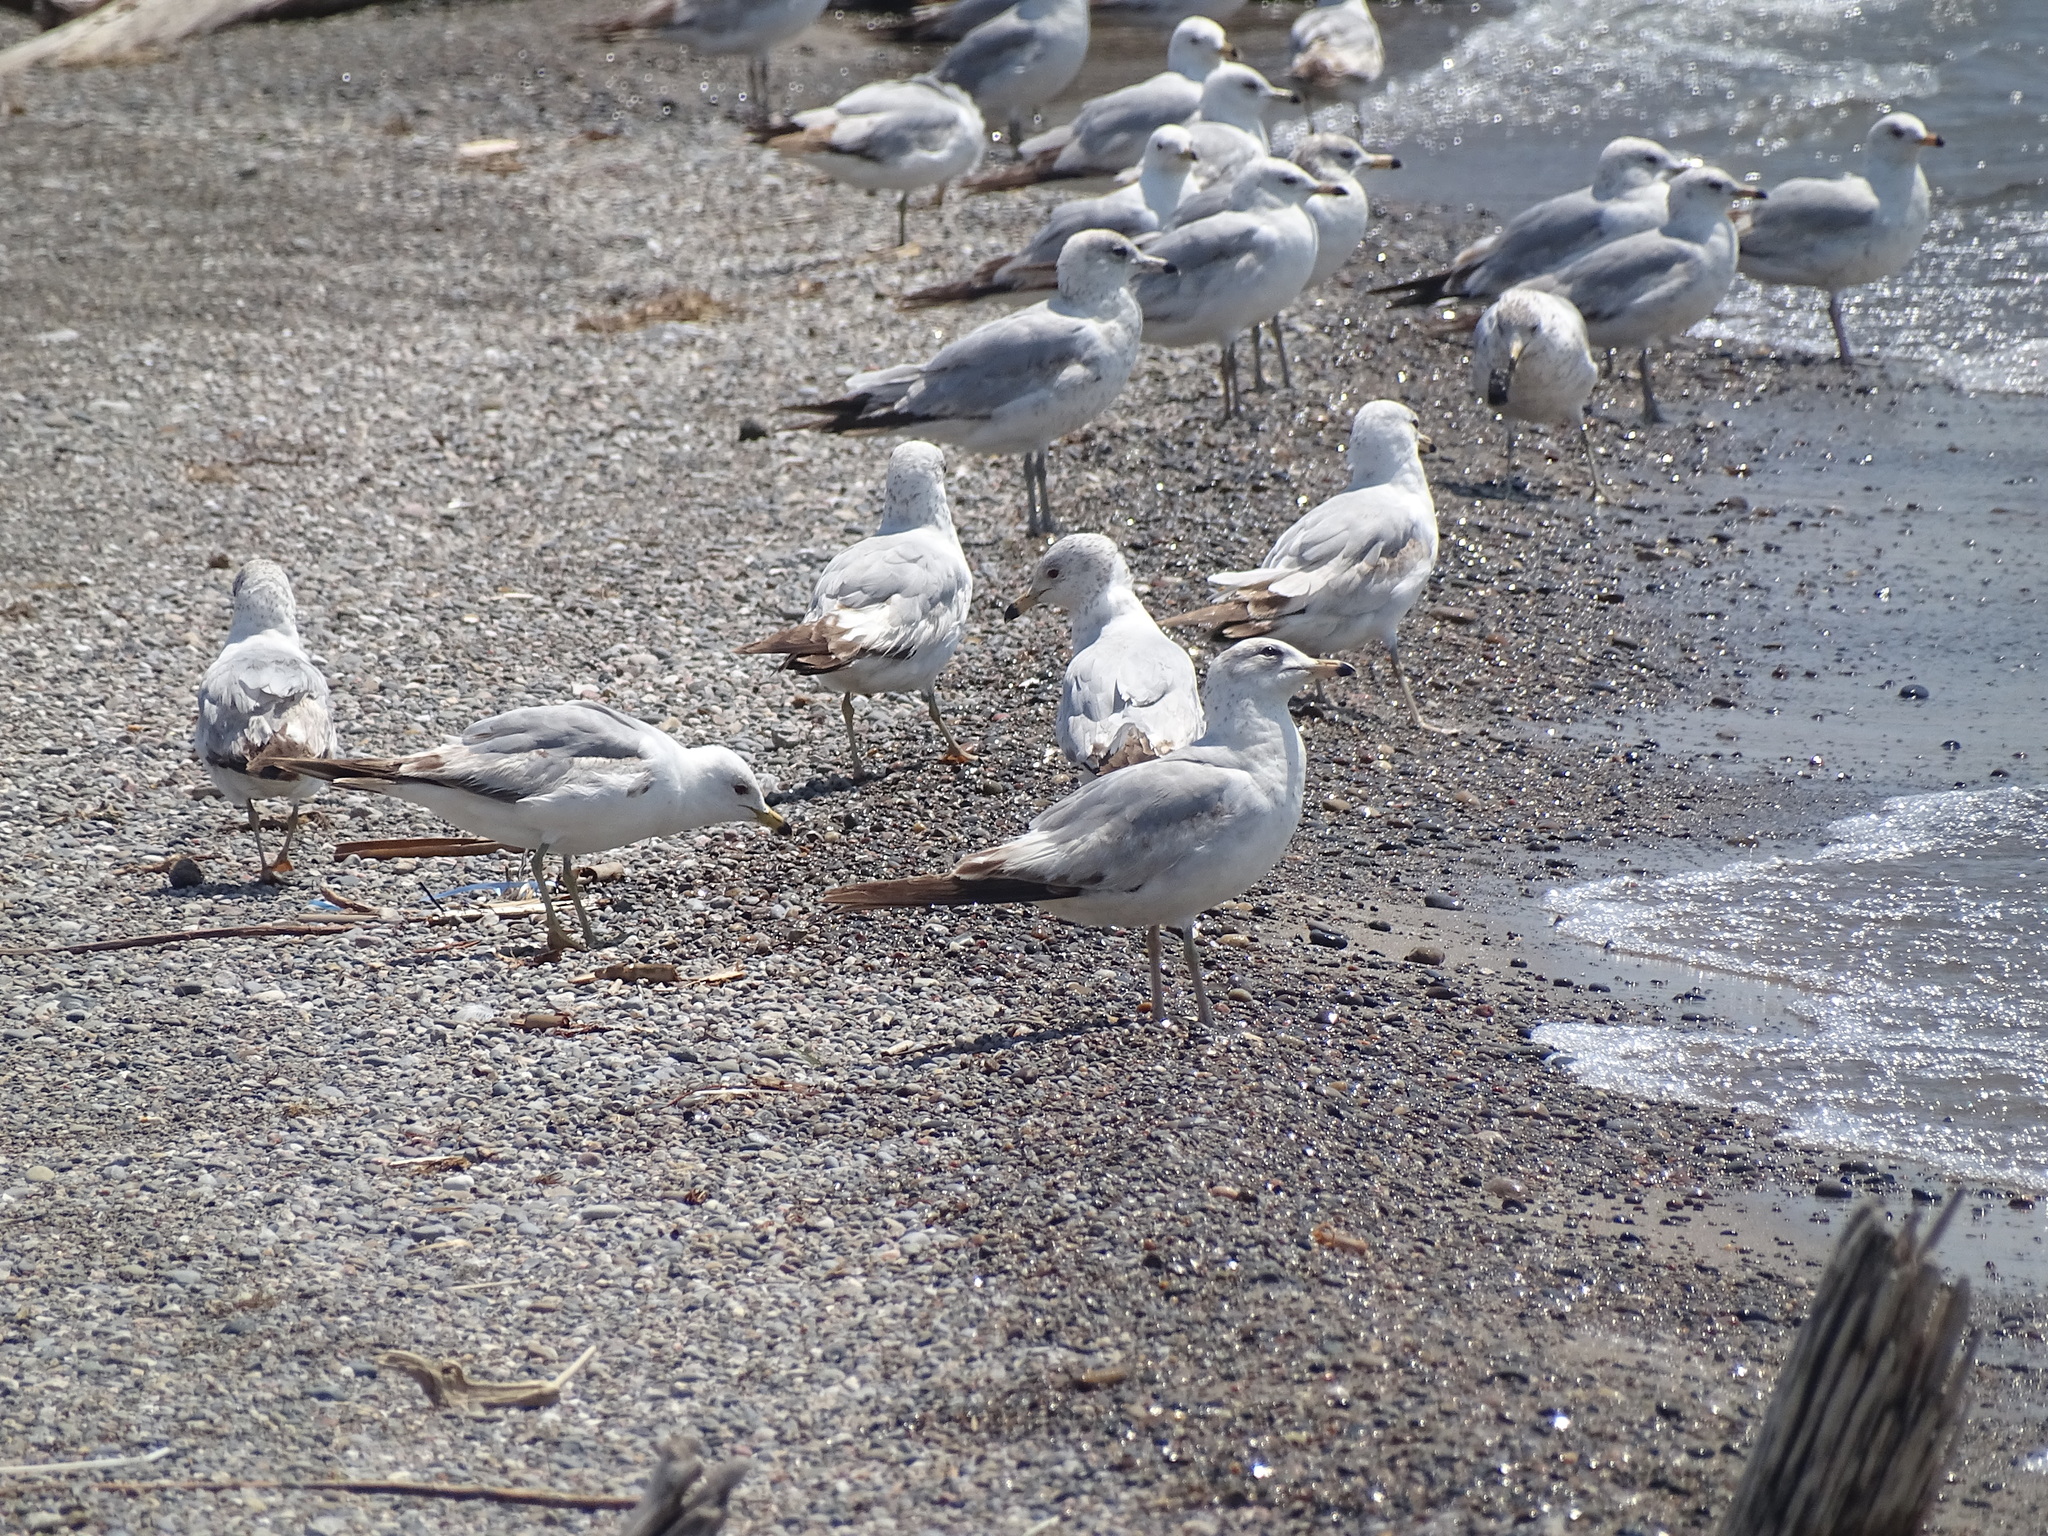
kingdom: Animalia
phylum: Chordata
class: Aves
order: Charadriiformes
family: Laridae
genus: Larus
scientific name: Larus delawarensis
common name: Ring-billed gull
